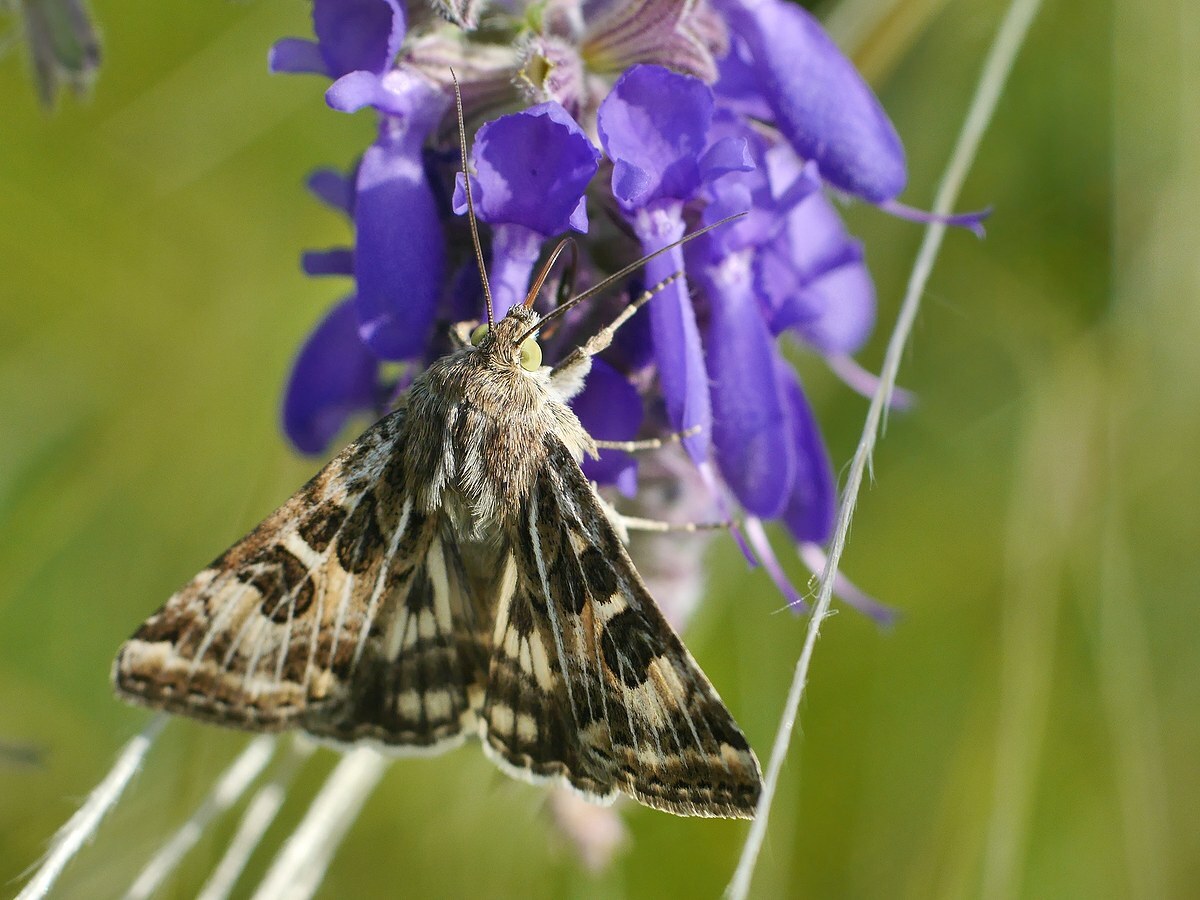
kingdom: Animalia
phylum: Arthropoda
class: Insecta
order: Lepidoptera
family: Noctuidae
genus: Protoschinia
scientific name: Protoschinia scutosa
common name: Spotted clover
